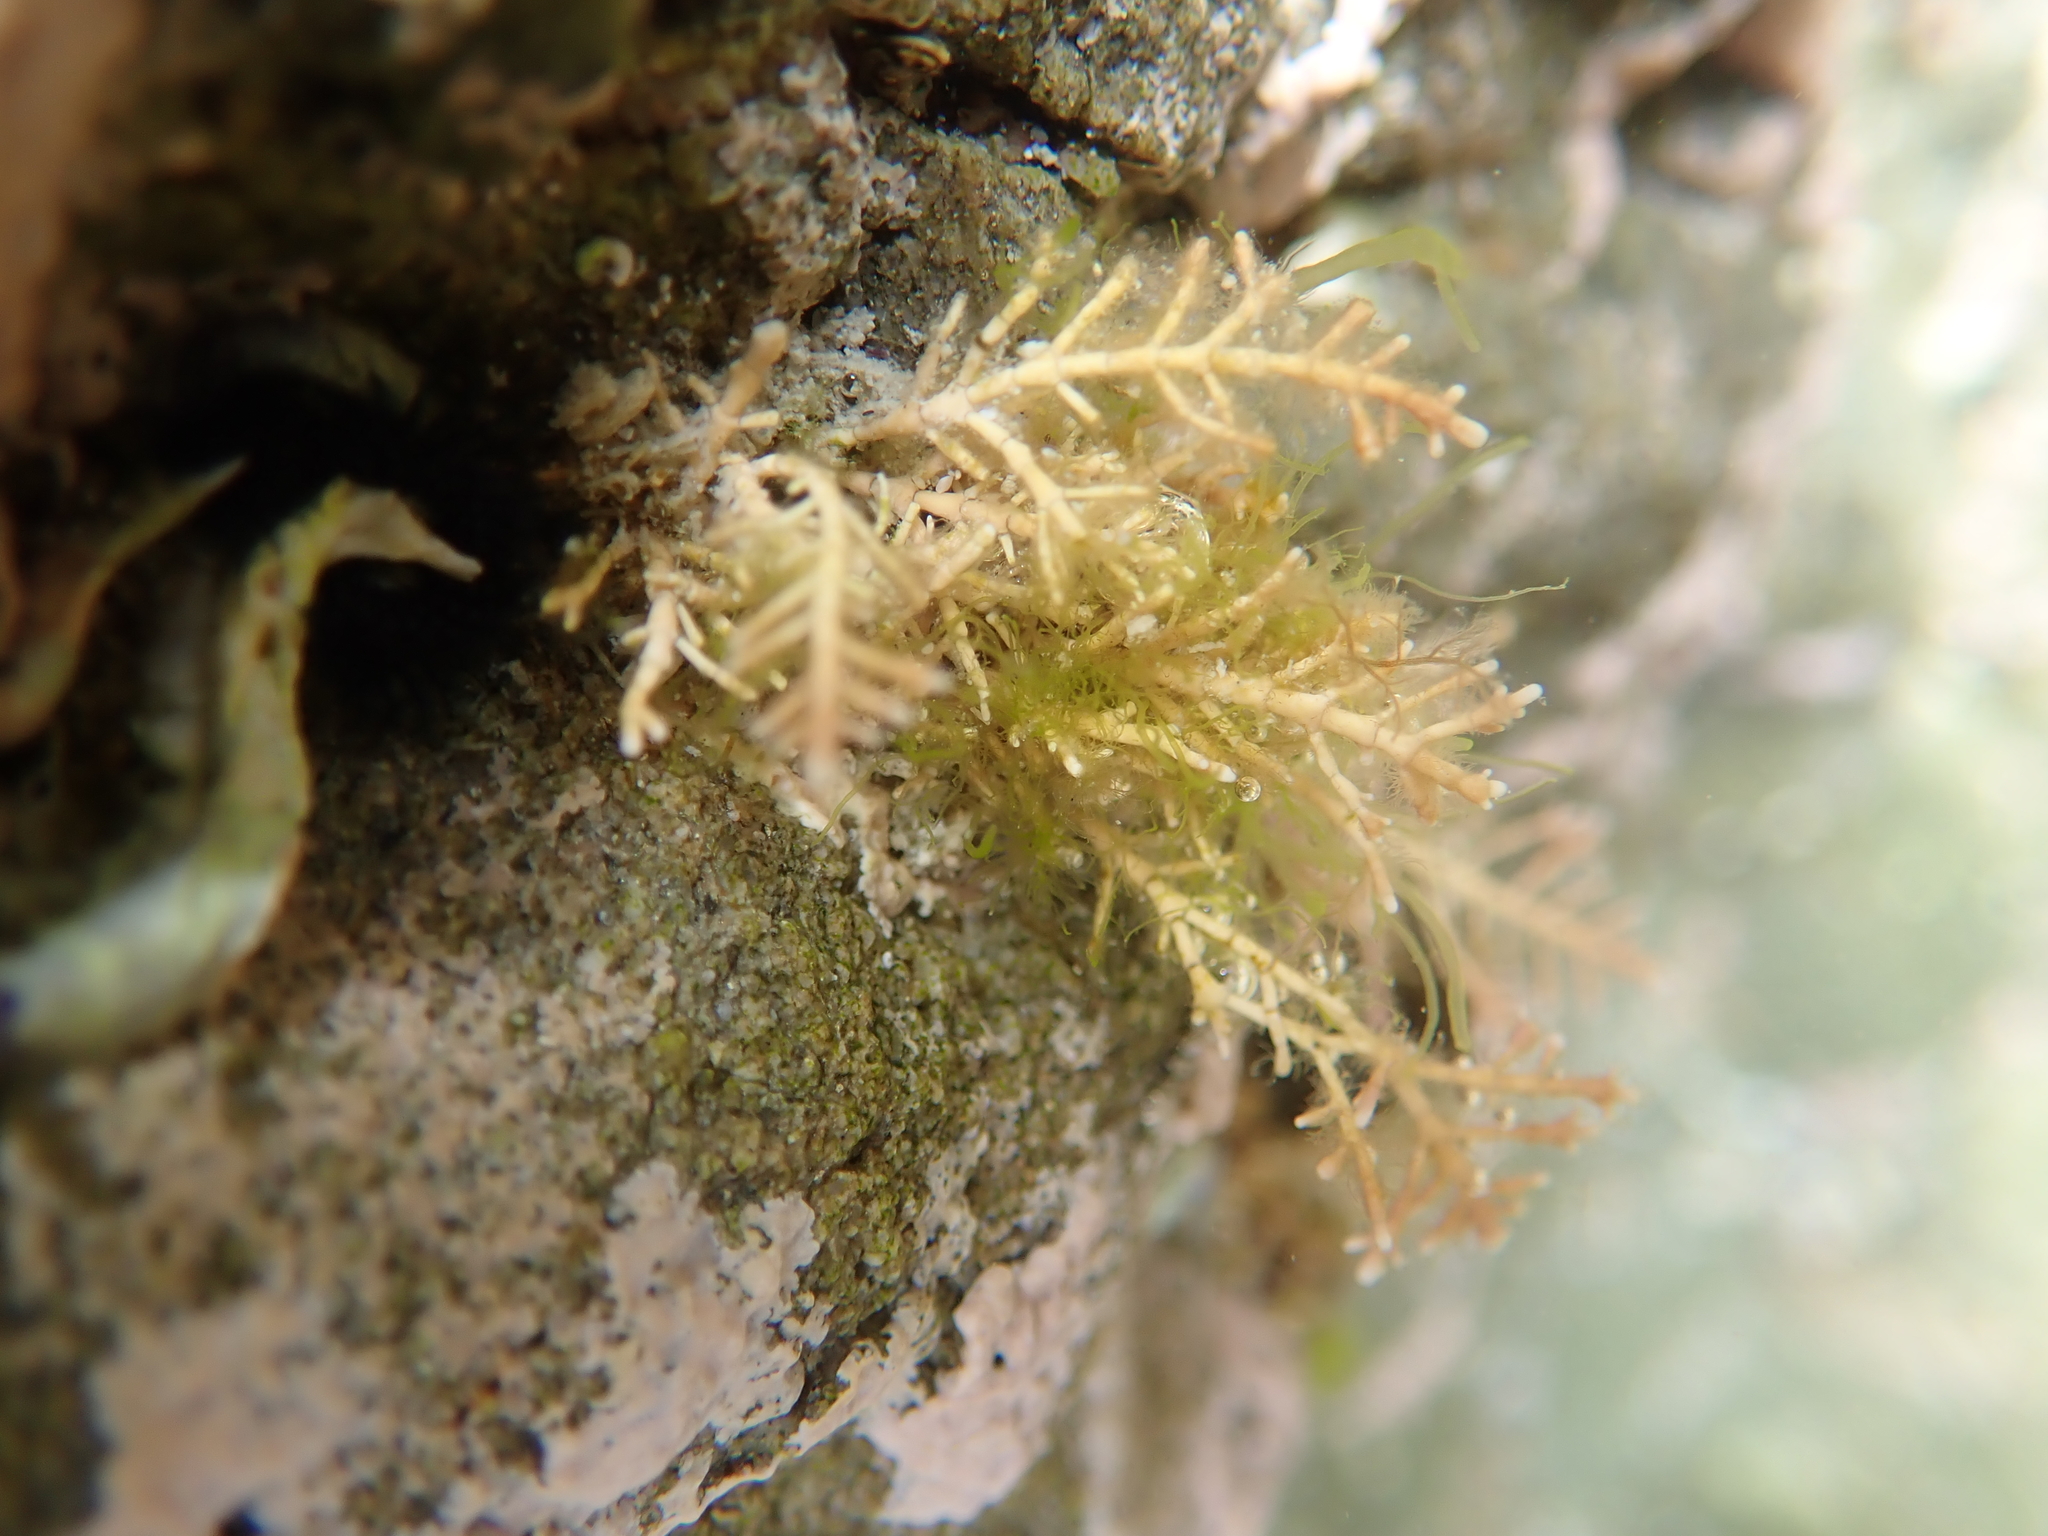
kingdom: Plantae
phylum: Rhodophyta
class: Florideophyceae
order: Corallinales
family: Corallinaceae
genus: Corallina
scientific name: Corallina officinalis
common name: Coral weed
